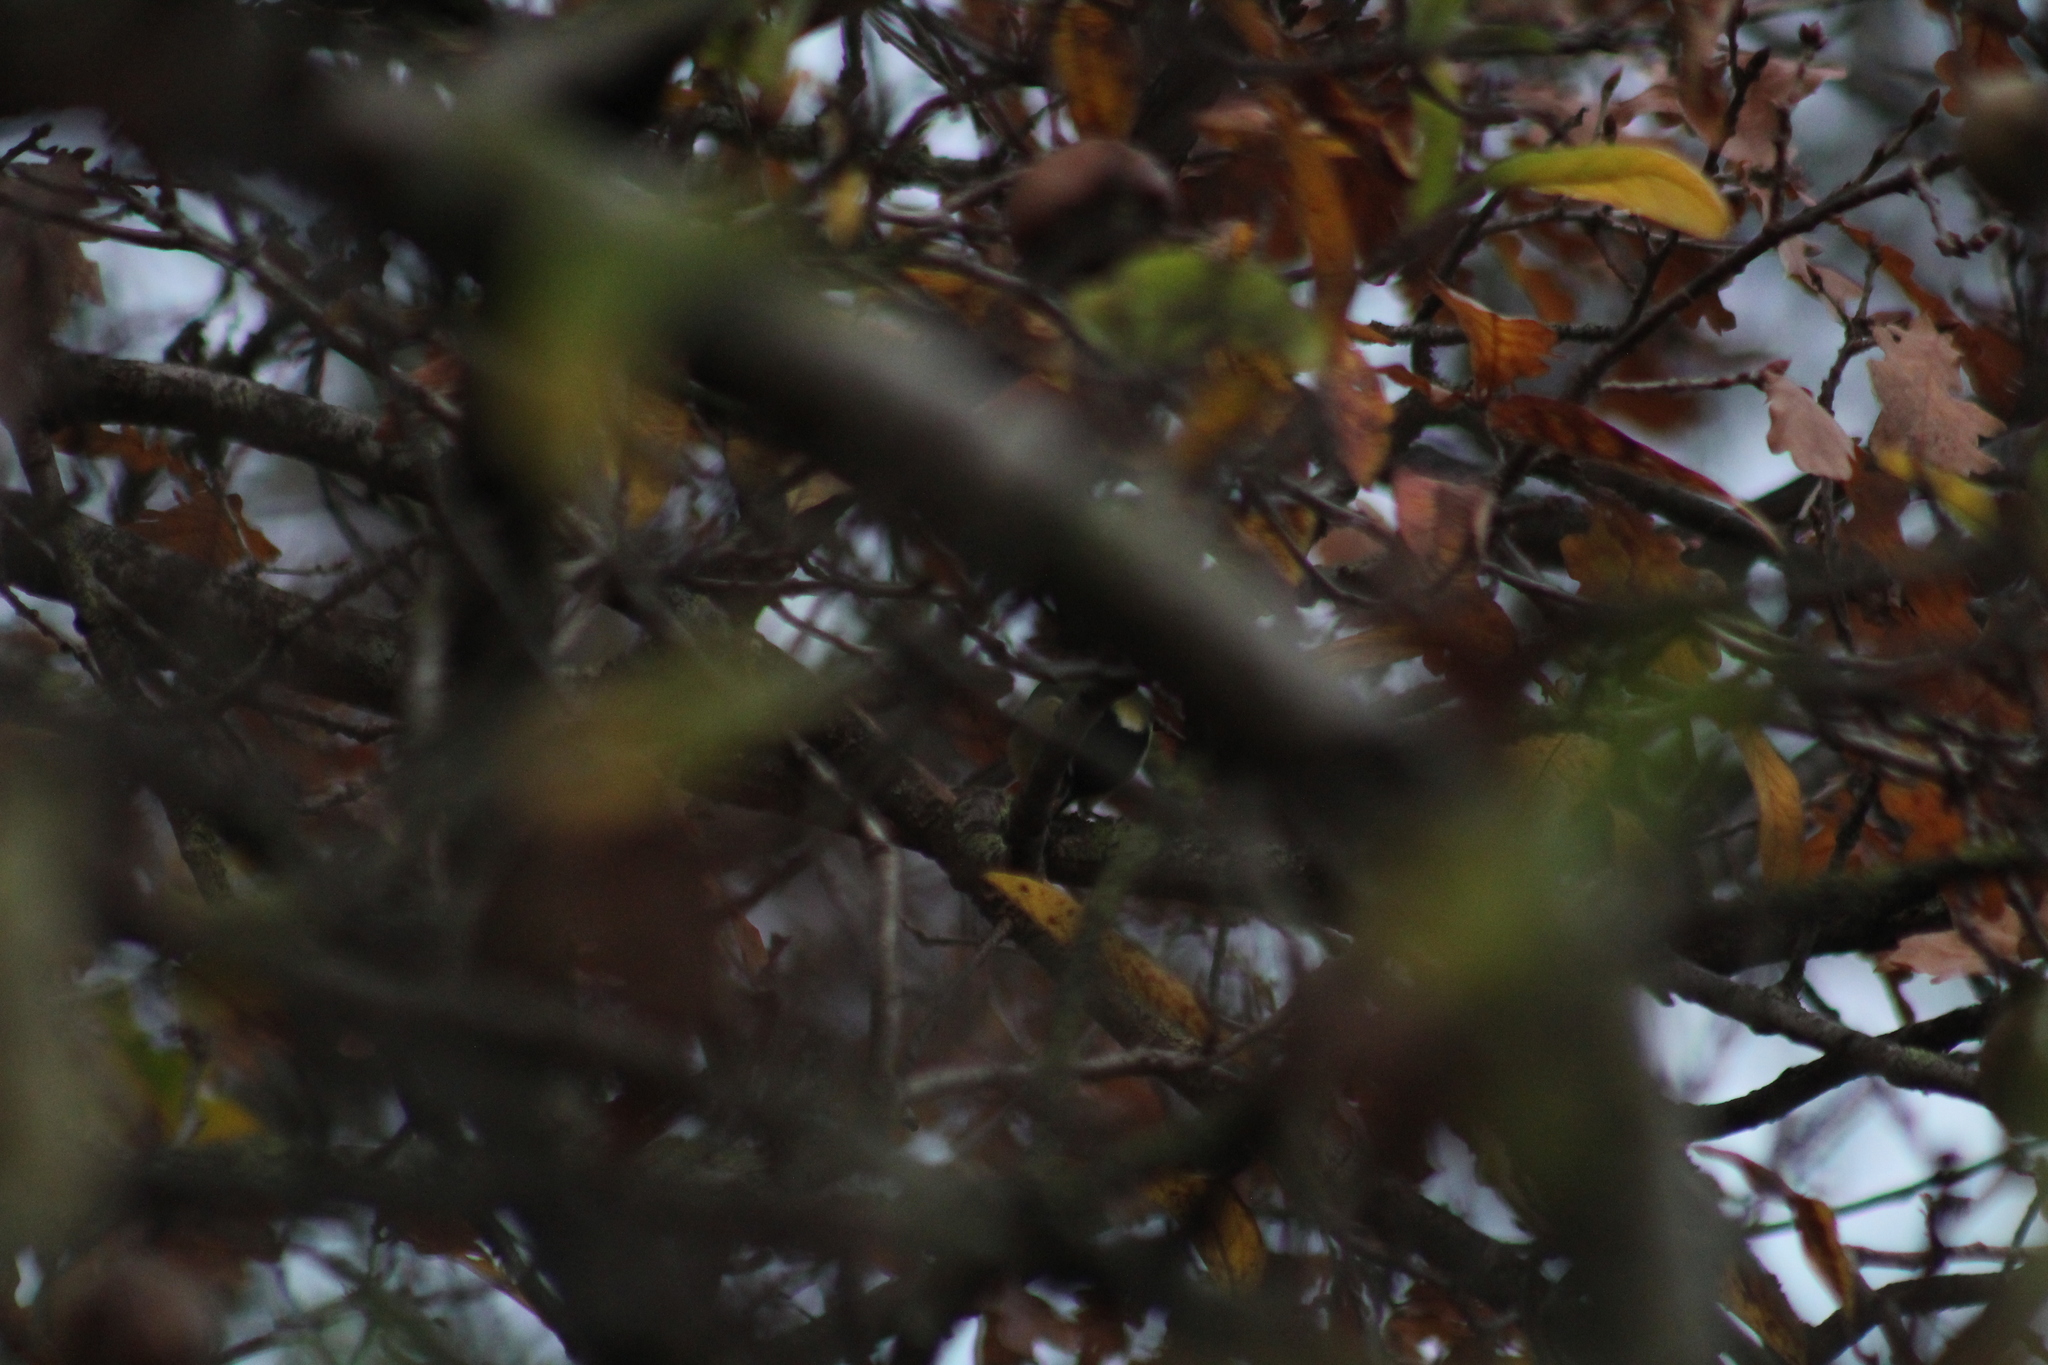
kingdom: Animalia
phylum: Chordata
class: Aves
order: Passeriformes
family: Paridae
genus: Parus
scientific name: Parus major
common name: Great tit
